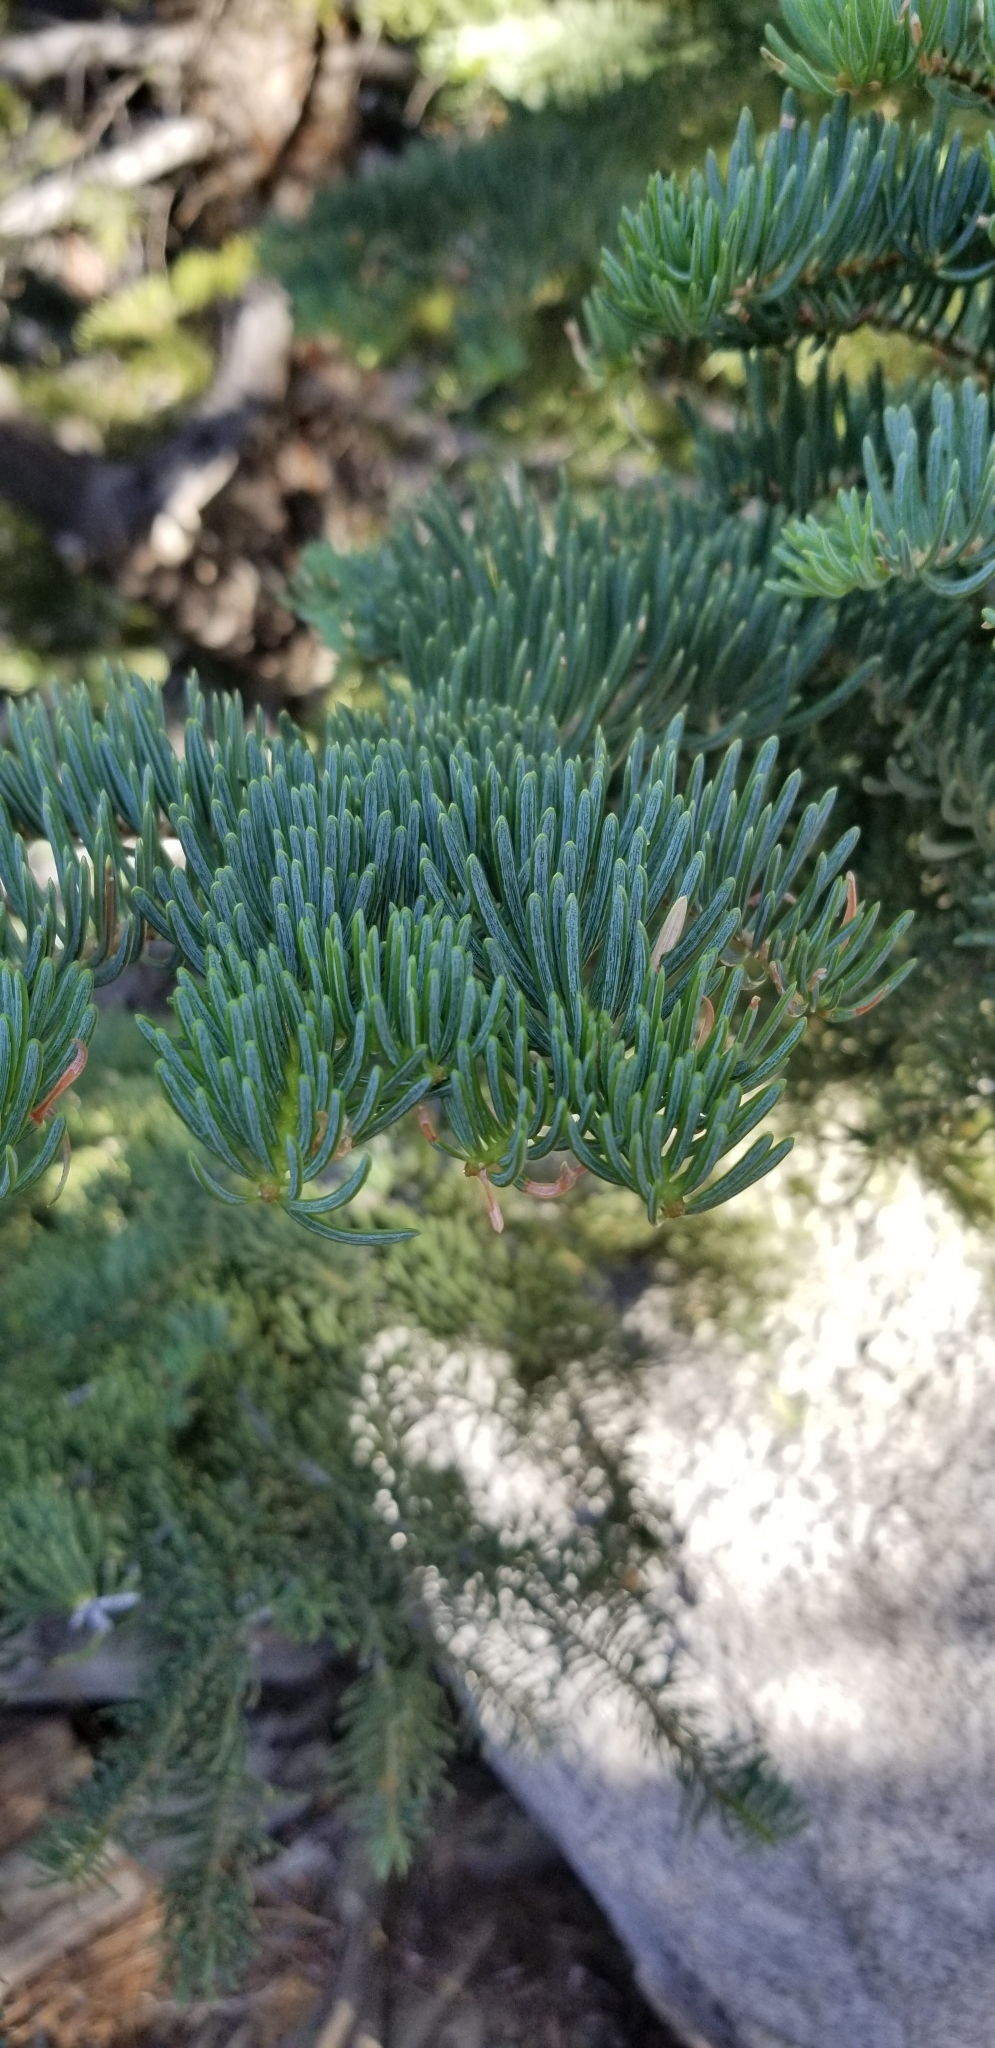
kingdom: Plantae
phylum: Tracheophyta
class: Pinopsida
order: Pinales
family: Pinaceae
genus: Abies
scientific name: Abies concolor
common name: Colorado fir
